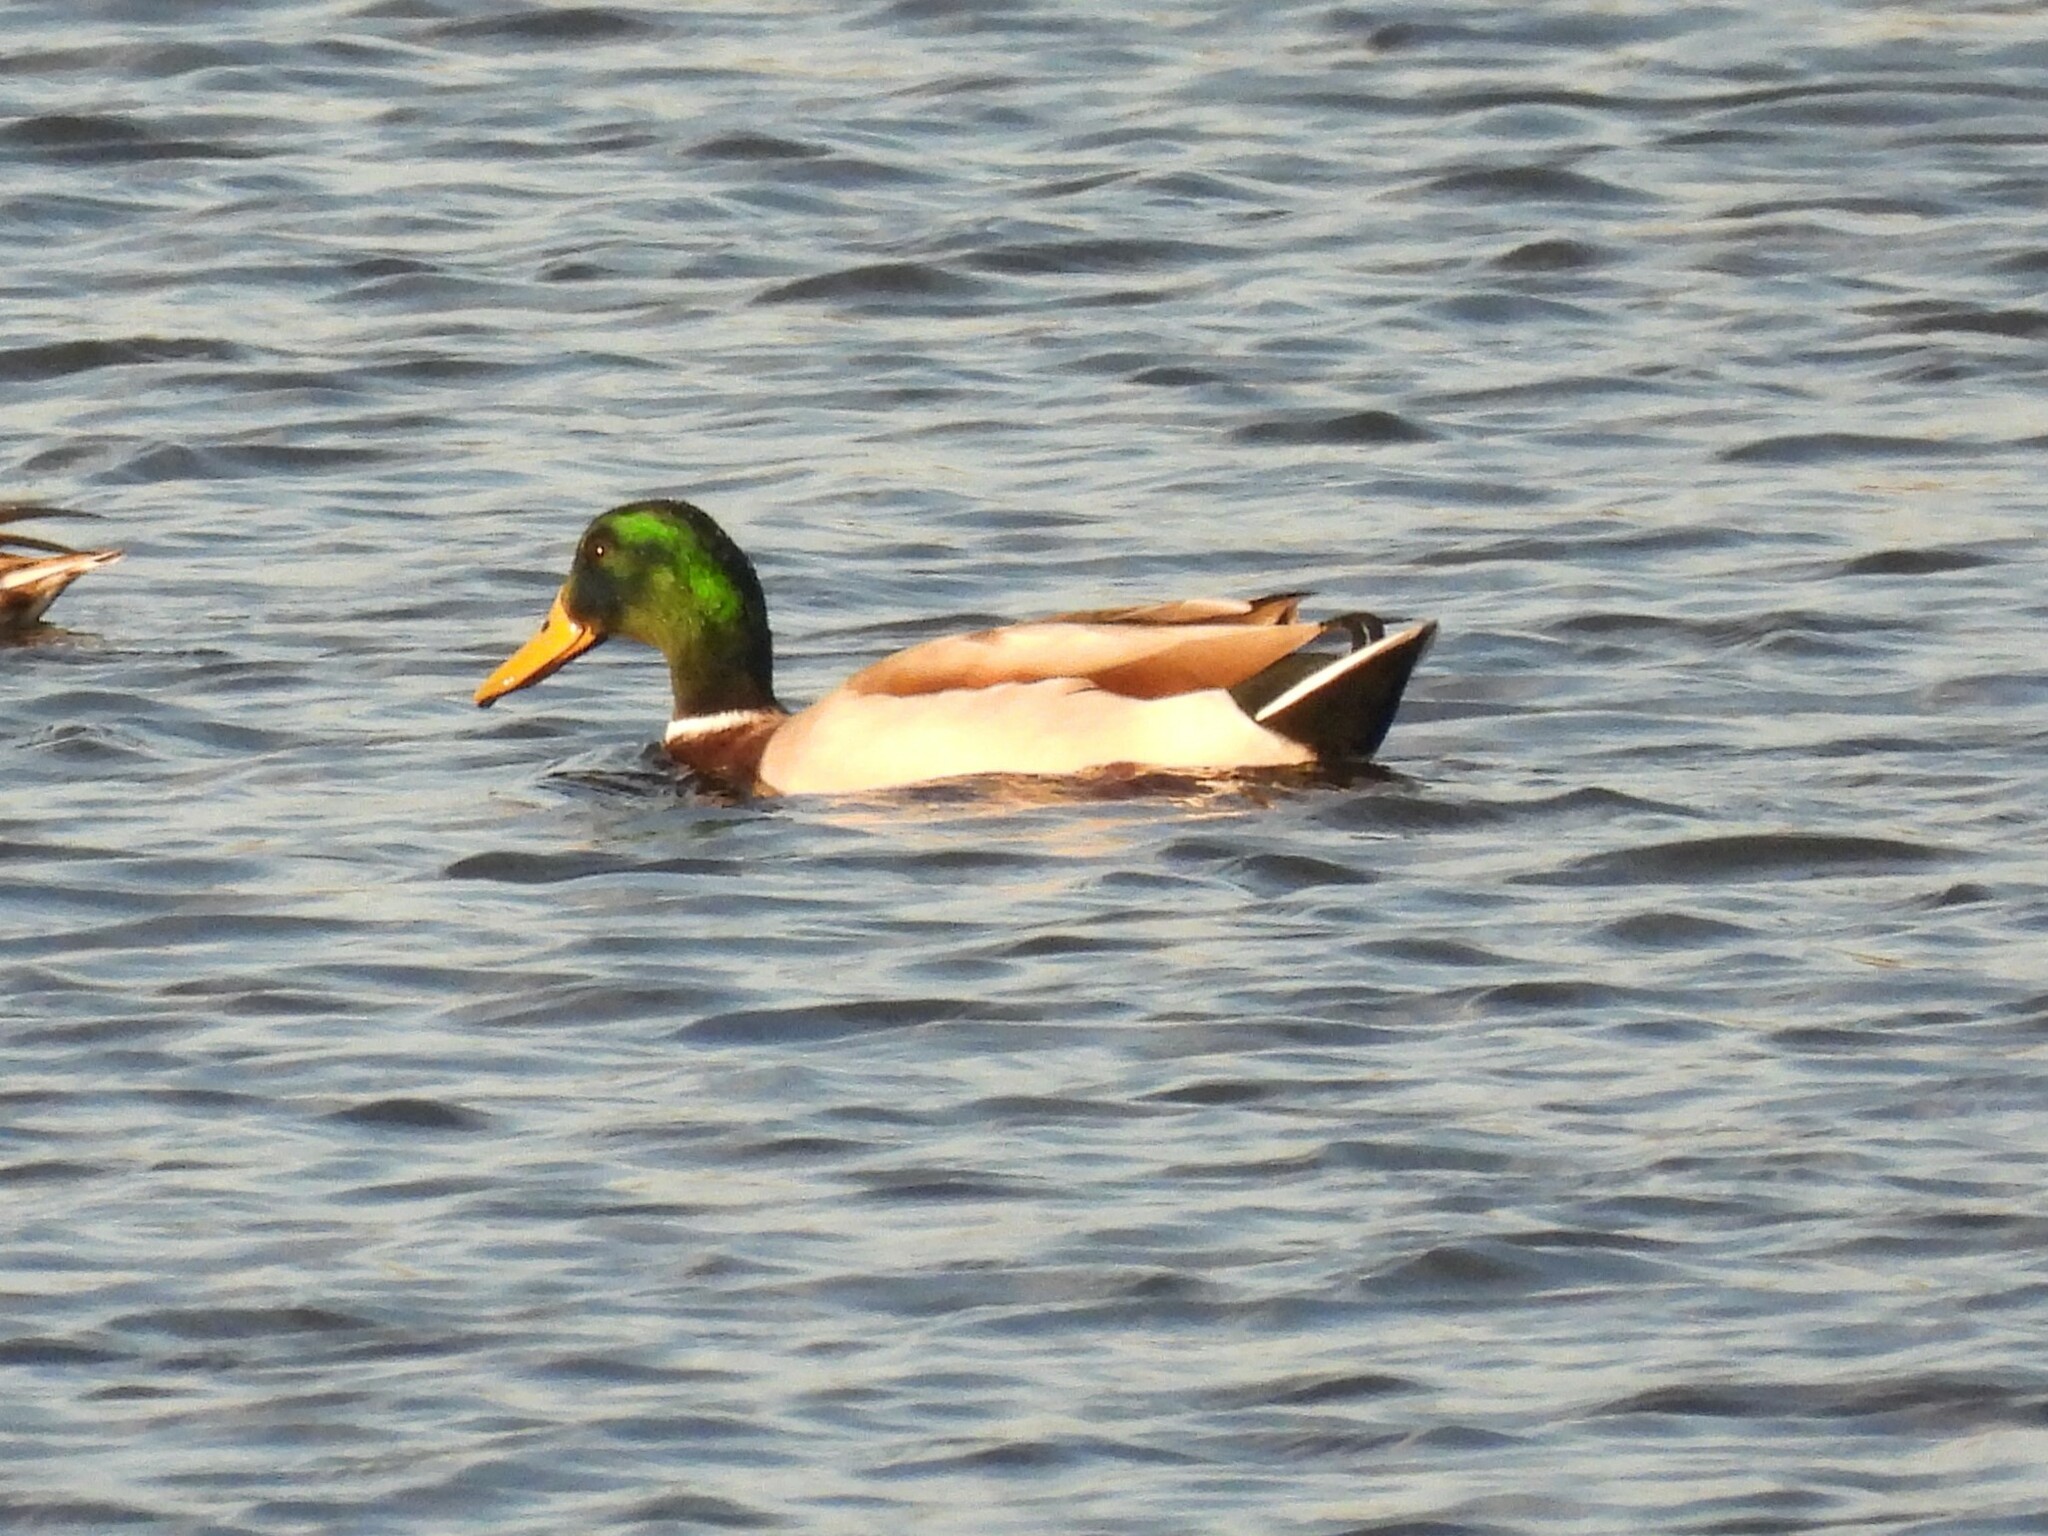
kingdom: Animalia
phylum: Chordata
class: Aves
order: Anseriformes
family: Anatidae
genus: Anas
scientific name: Anas platyrhynchos
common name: Mallard
